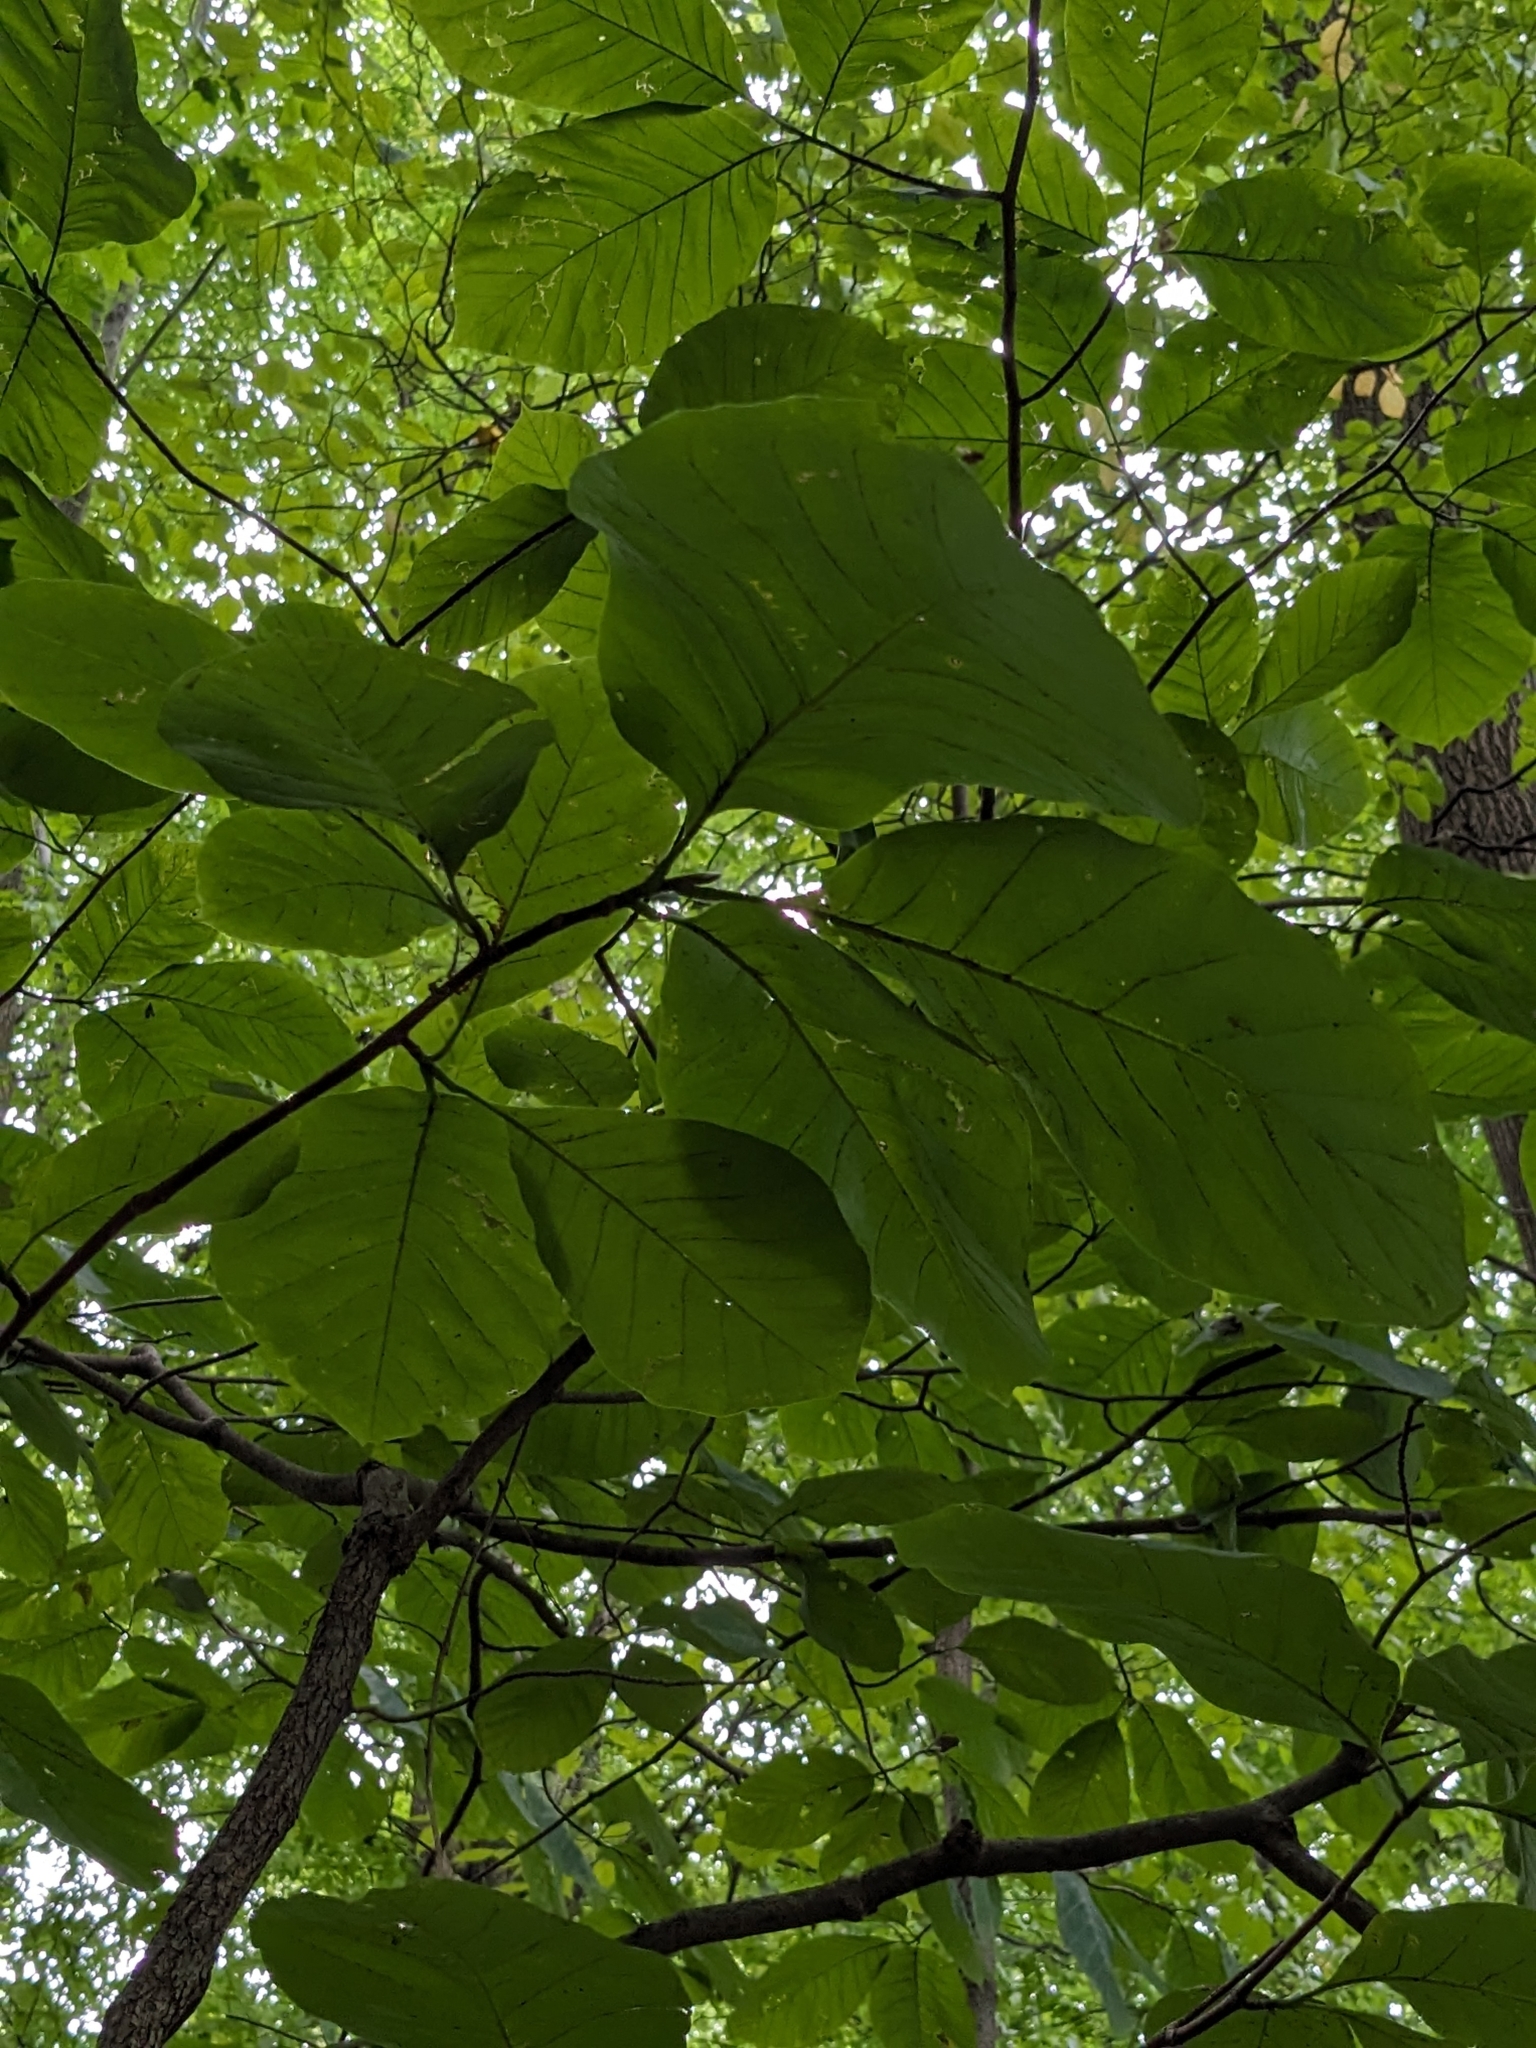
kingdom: Plantae
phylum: Tracheophyta
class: Magnoliopsida
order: Magnoliales
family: Magnoliaceae
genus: Magnolia
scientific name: Magnolia acuminata
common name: Cucumber magnolia
